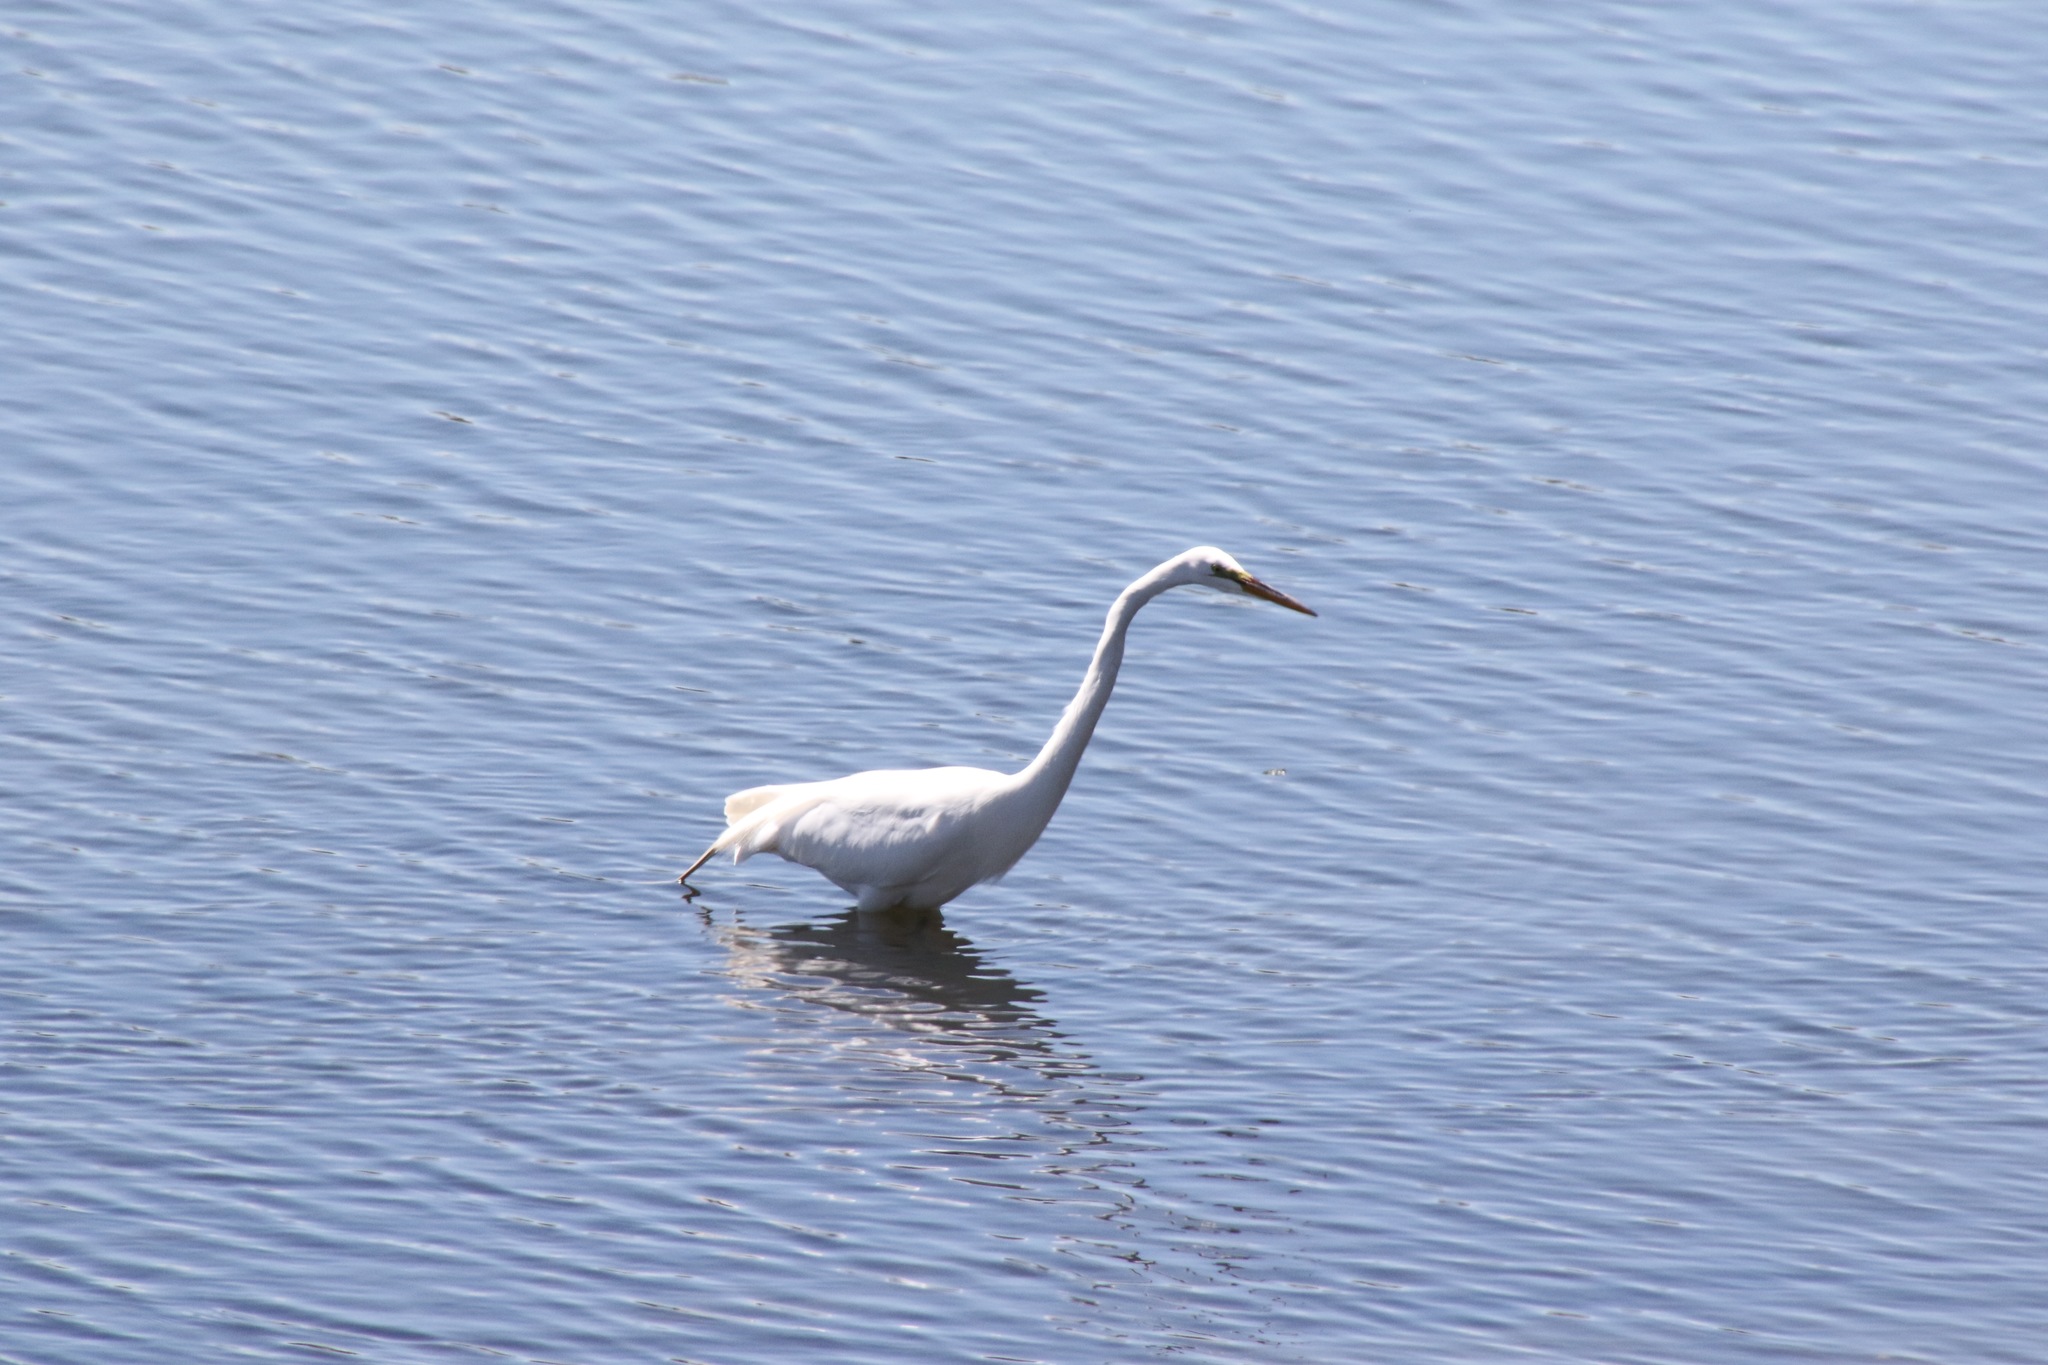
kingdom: Animalia
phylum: Chordata
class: Aves
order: Pelecaniformes
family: Ardeidae
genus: Ardea
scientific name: Ardea alba
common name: Great egret
